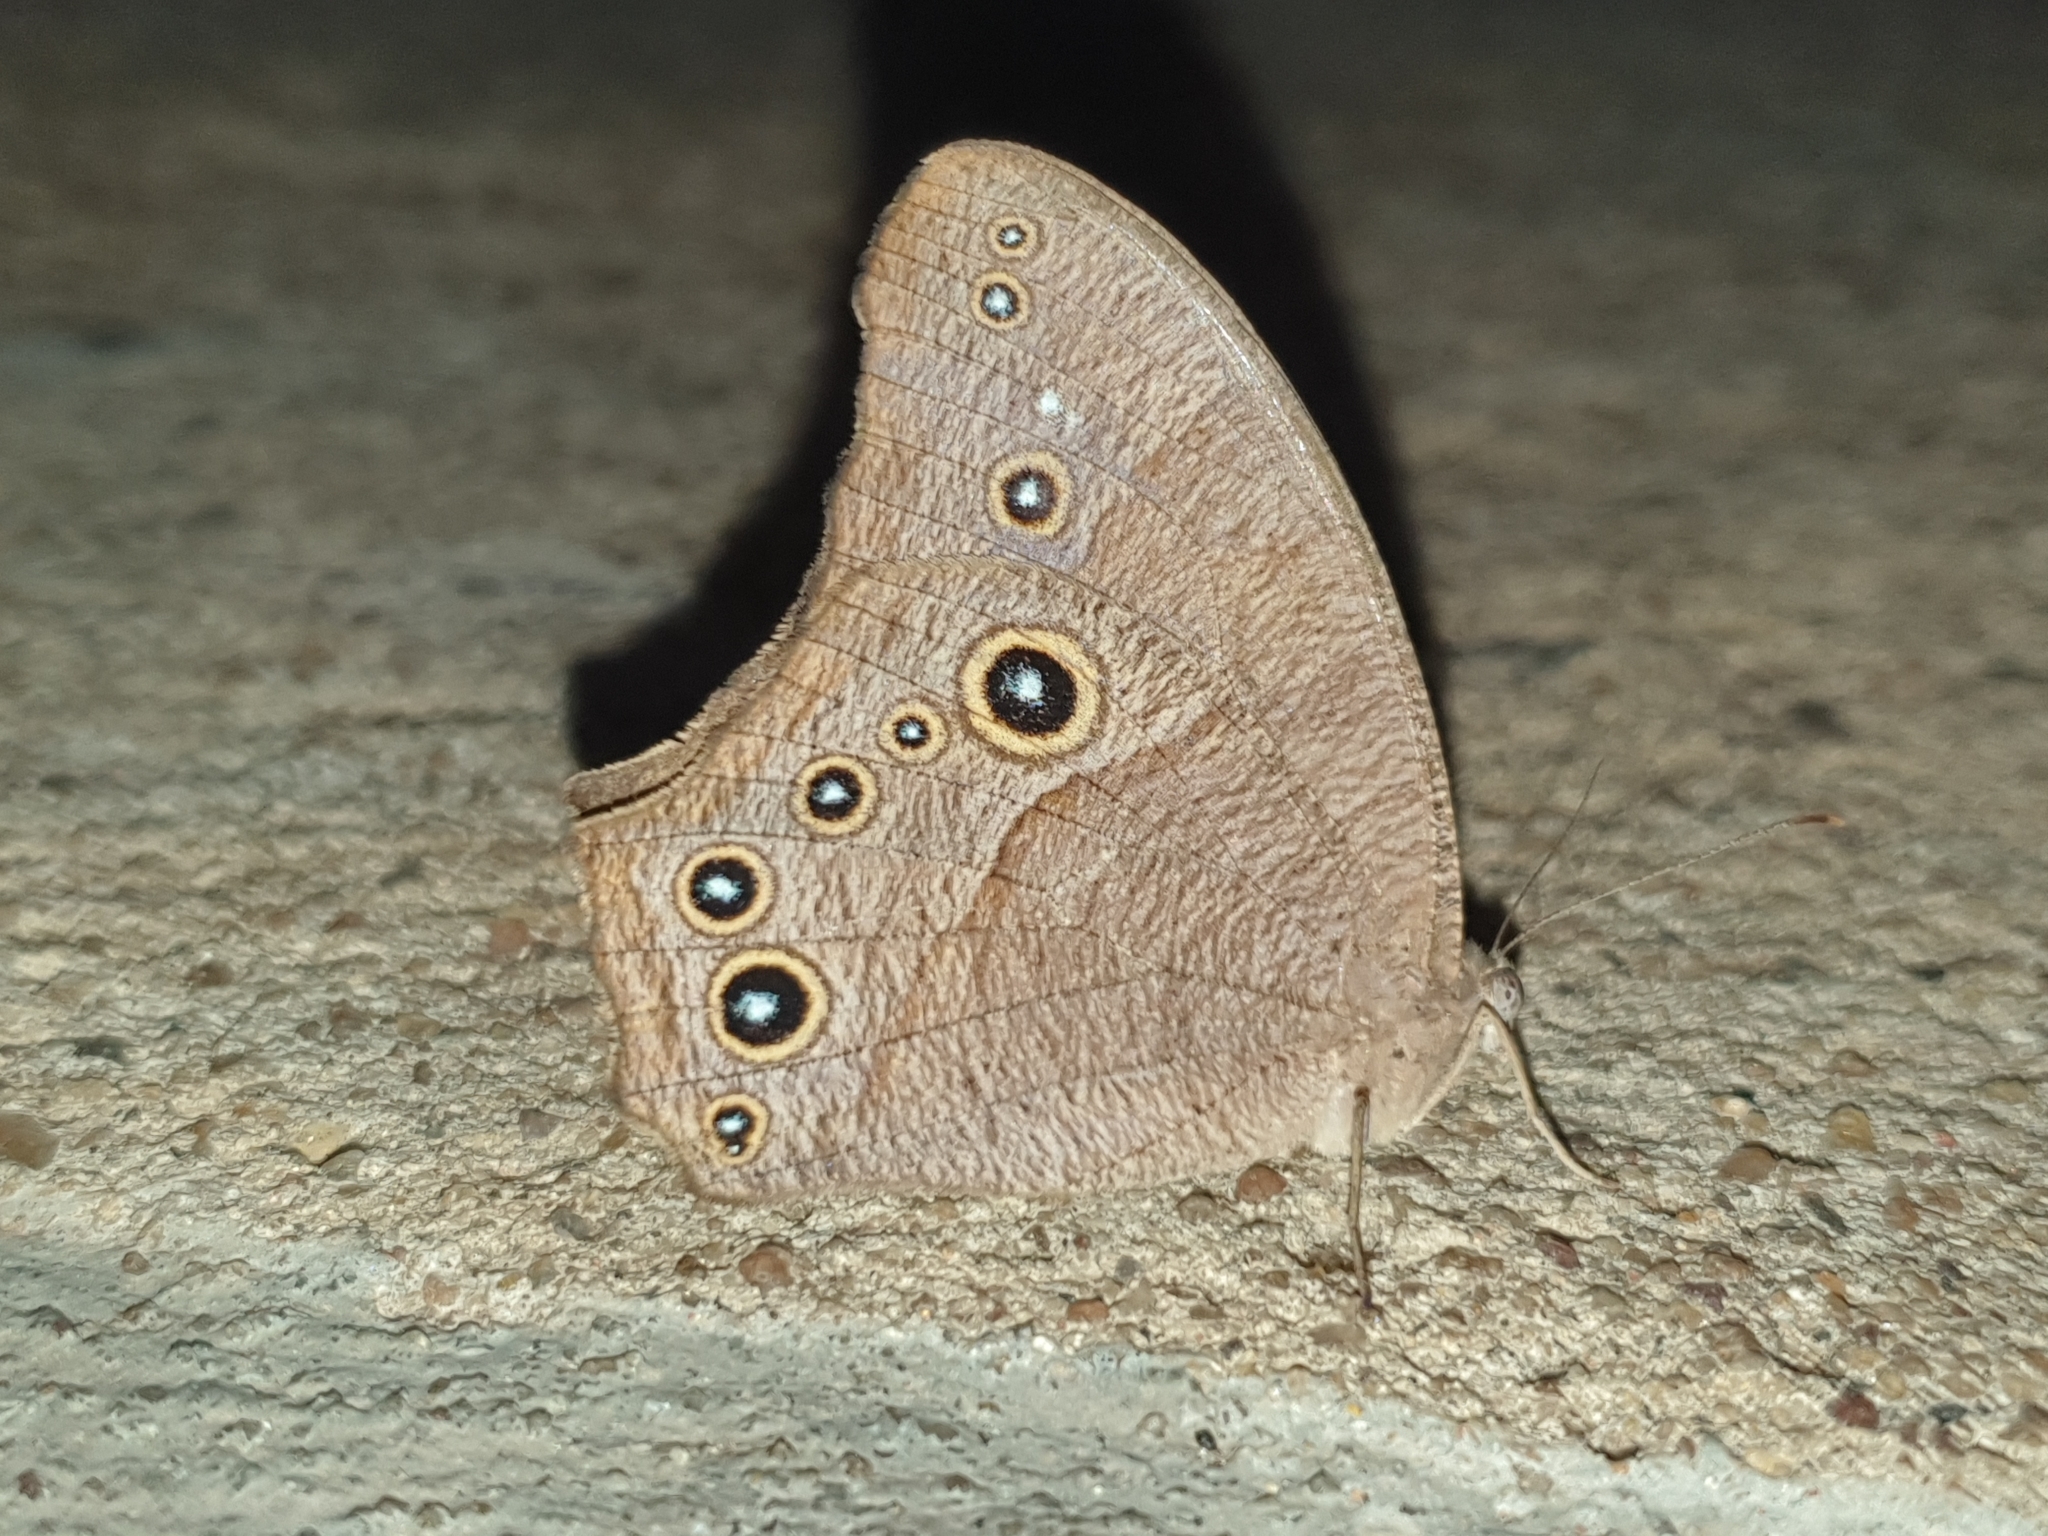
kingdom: Animalia
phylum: Arthropoda
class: Insecta
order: Lepidoptera
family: Nymphalidae
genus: Melanitis
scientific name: Melanitis leda
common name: Twilight brown
